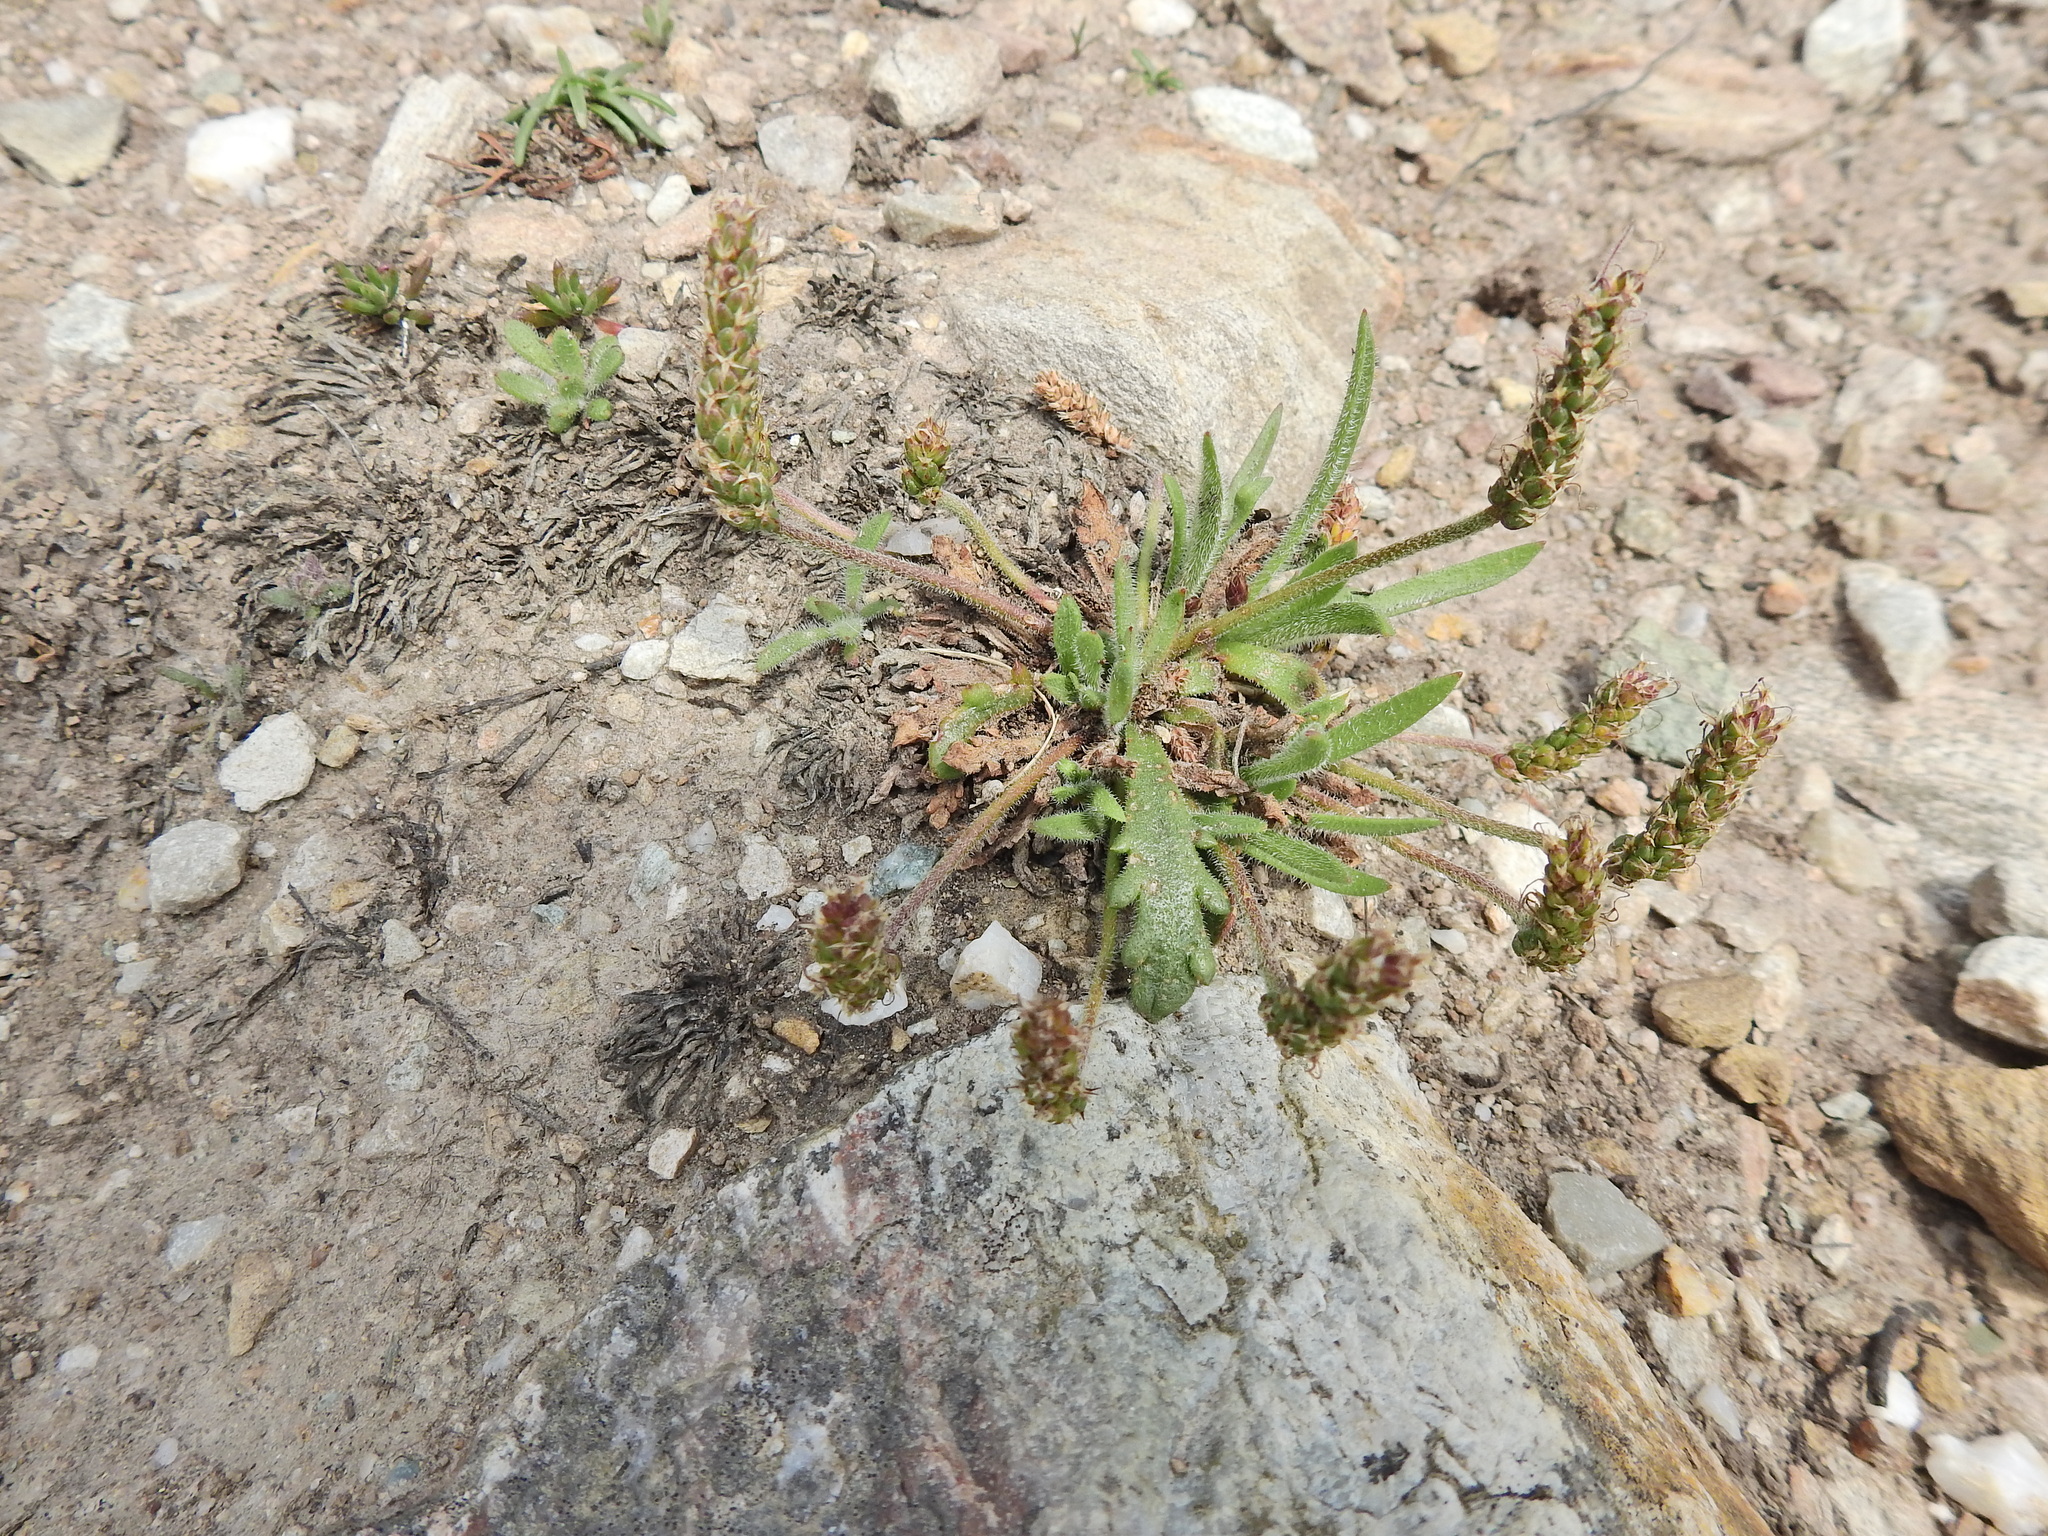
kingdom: Plantae
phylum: Tracheophyta
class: Magnoliopsida
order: Lamiales
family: Plantaginaceae
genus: Plantago
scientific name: Plantago coronopus
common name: Buck's-horn plantain
